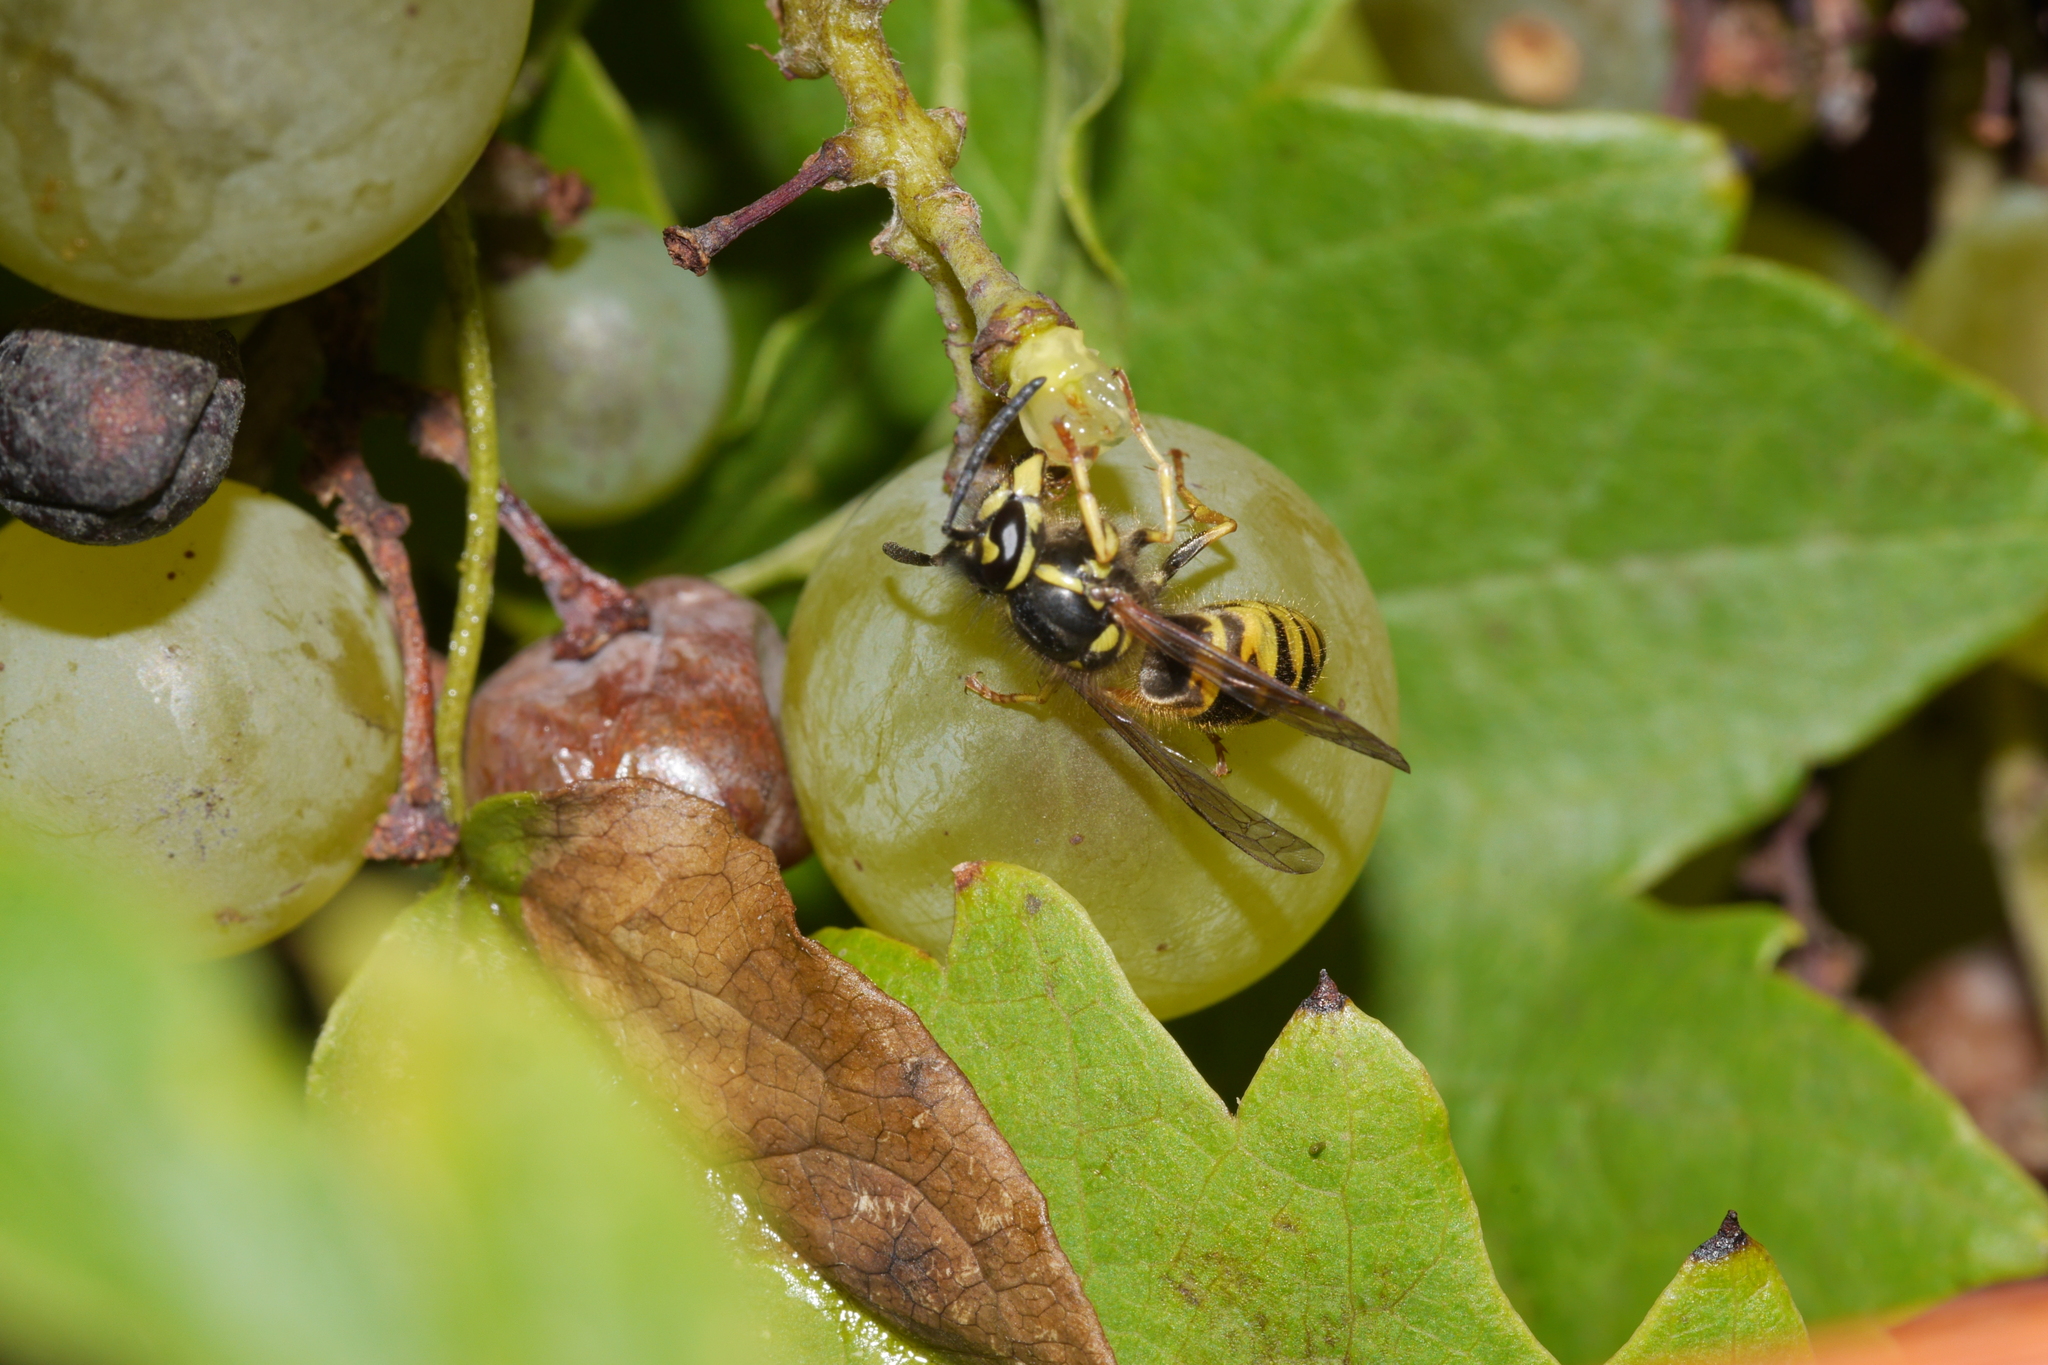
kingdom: Animalia
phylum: Arthropoda
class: Insecta
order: Hymenoptera
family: Vespidae
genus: Vespula
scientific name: Vespula vulgaris
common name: Common wasp
